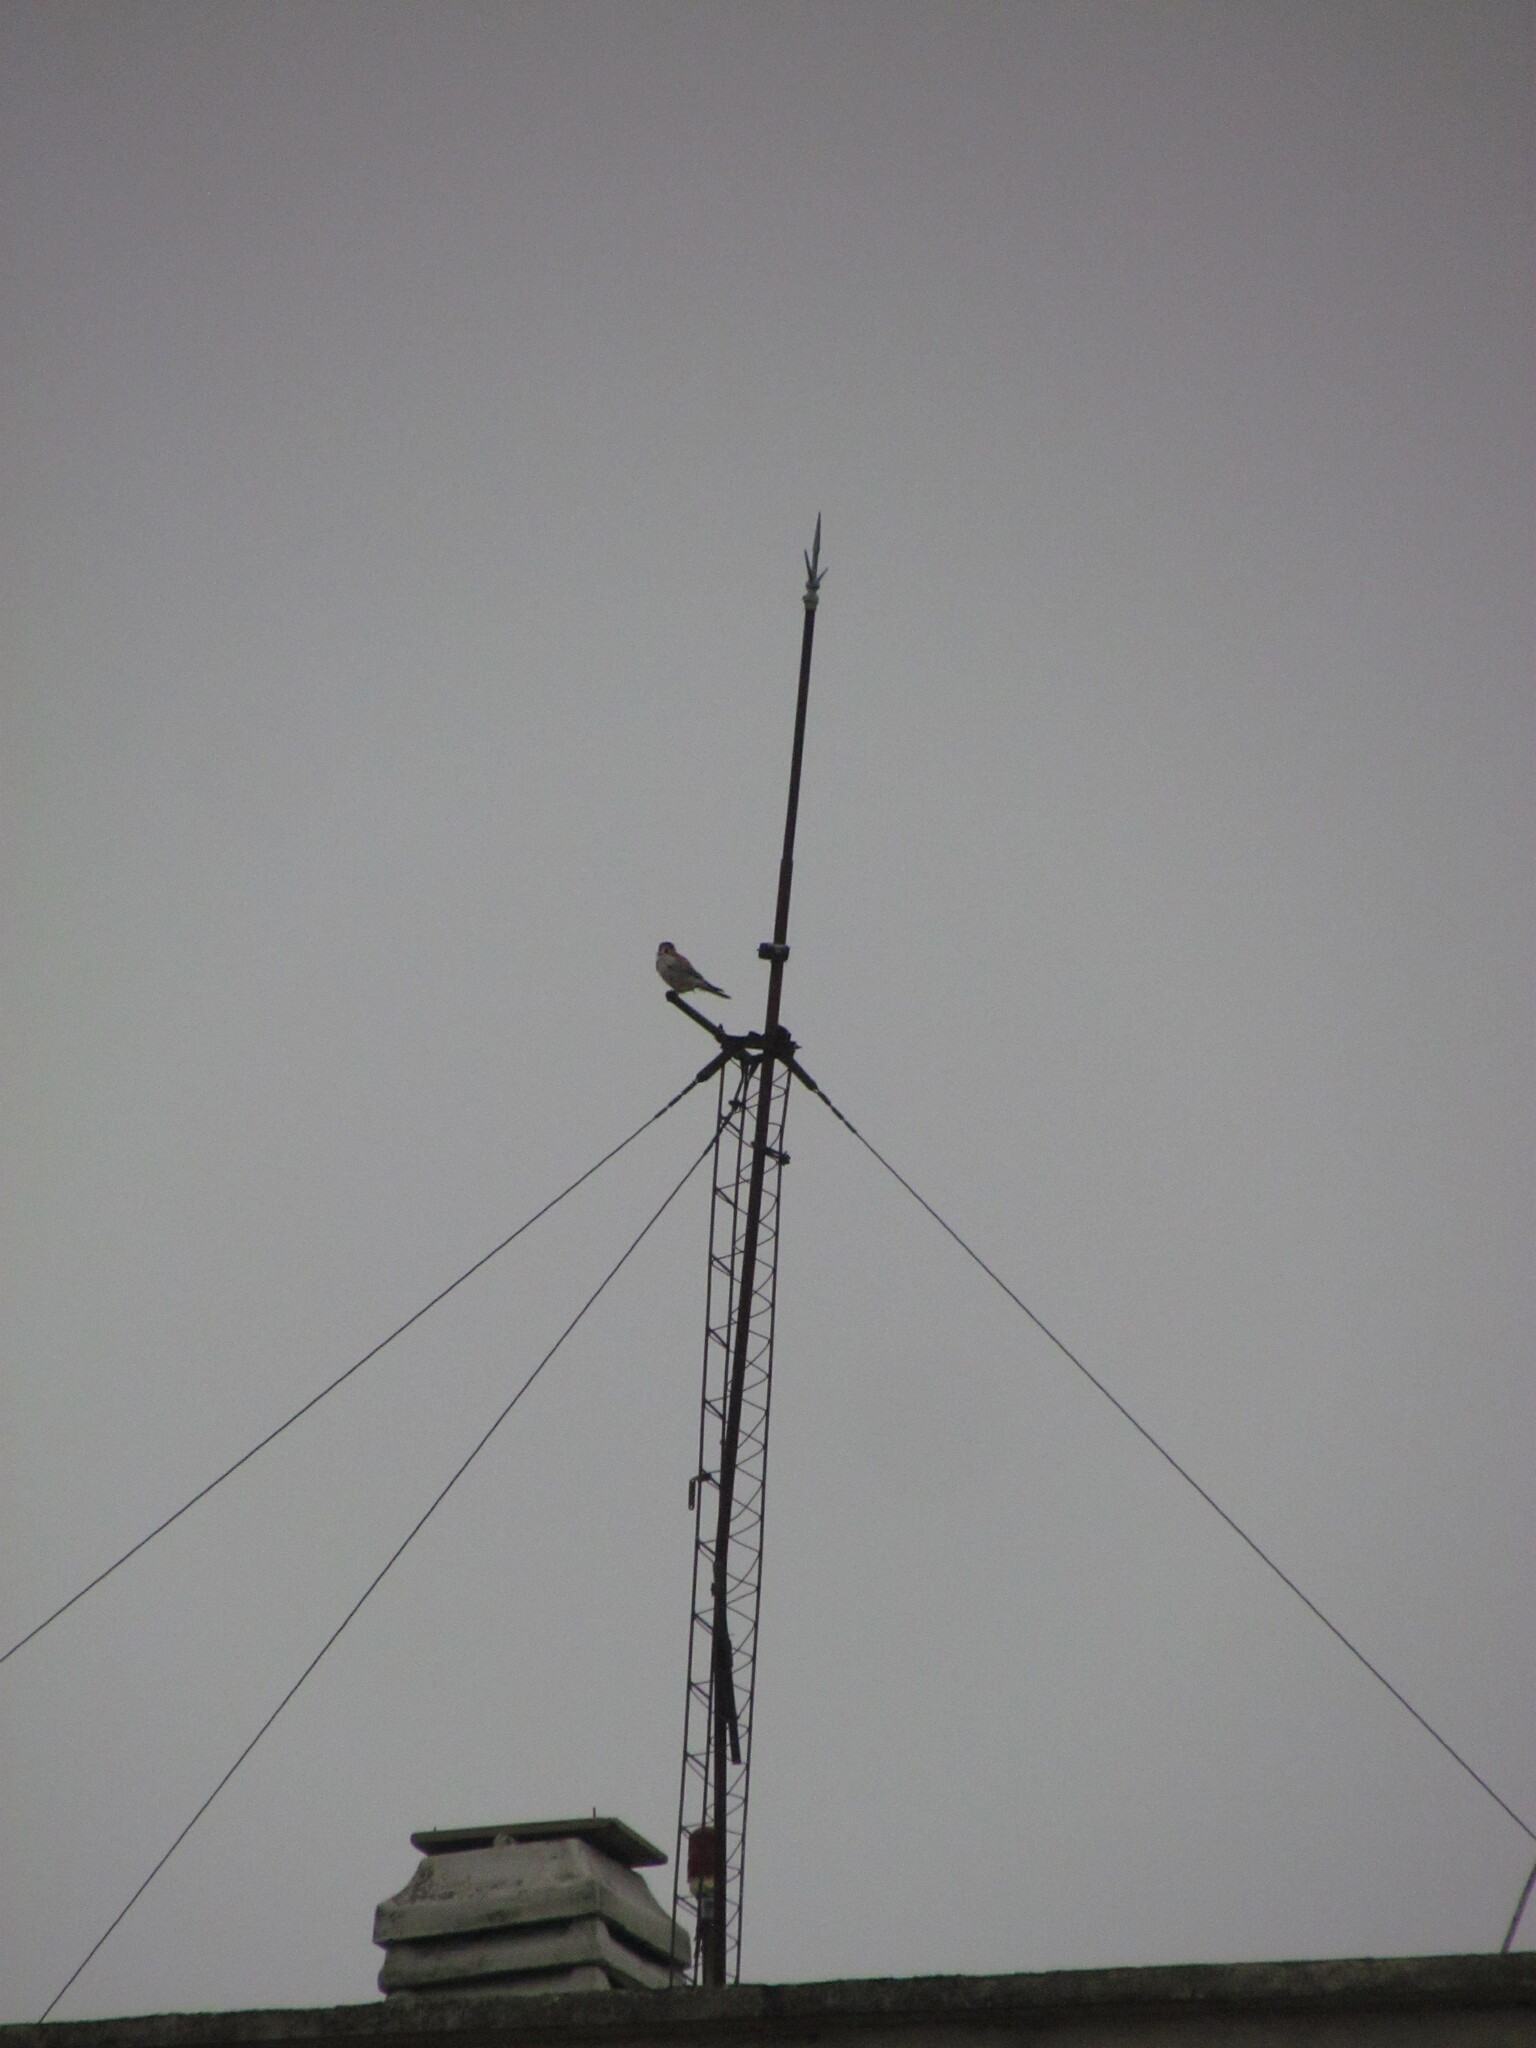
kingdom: Animalia
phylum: Chordata
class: Aves
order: Falconiformes
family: Falconidae
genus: Falco
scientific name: Falco sparverius
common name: American kestrel
